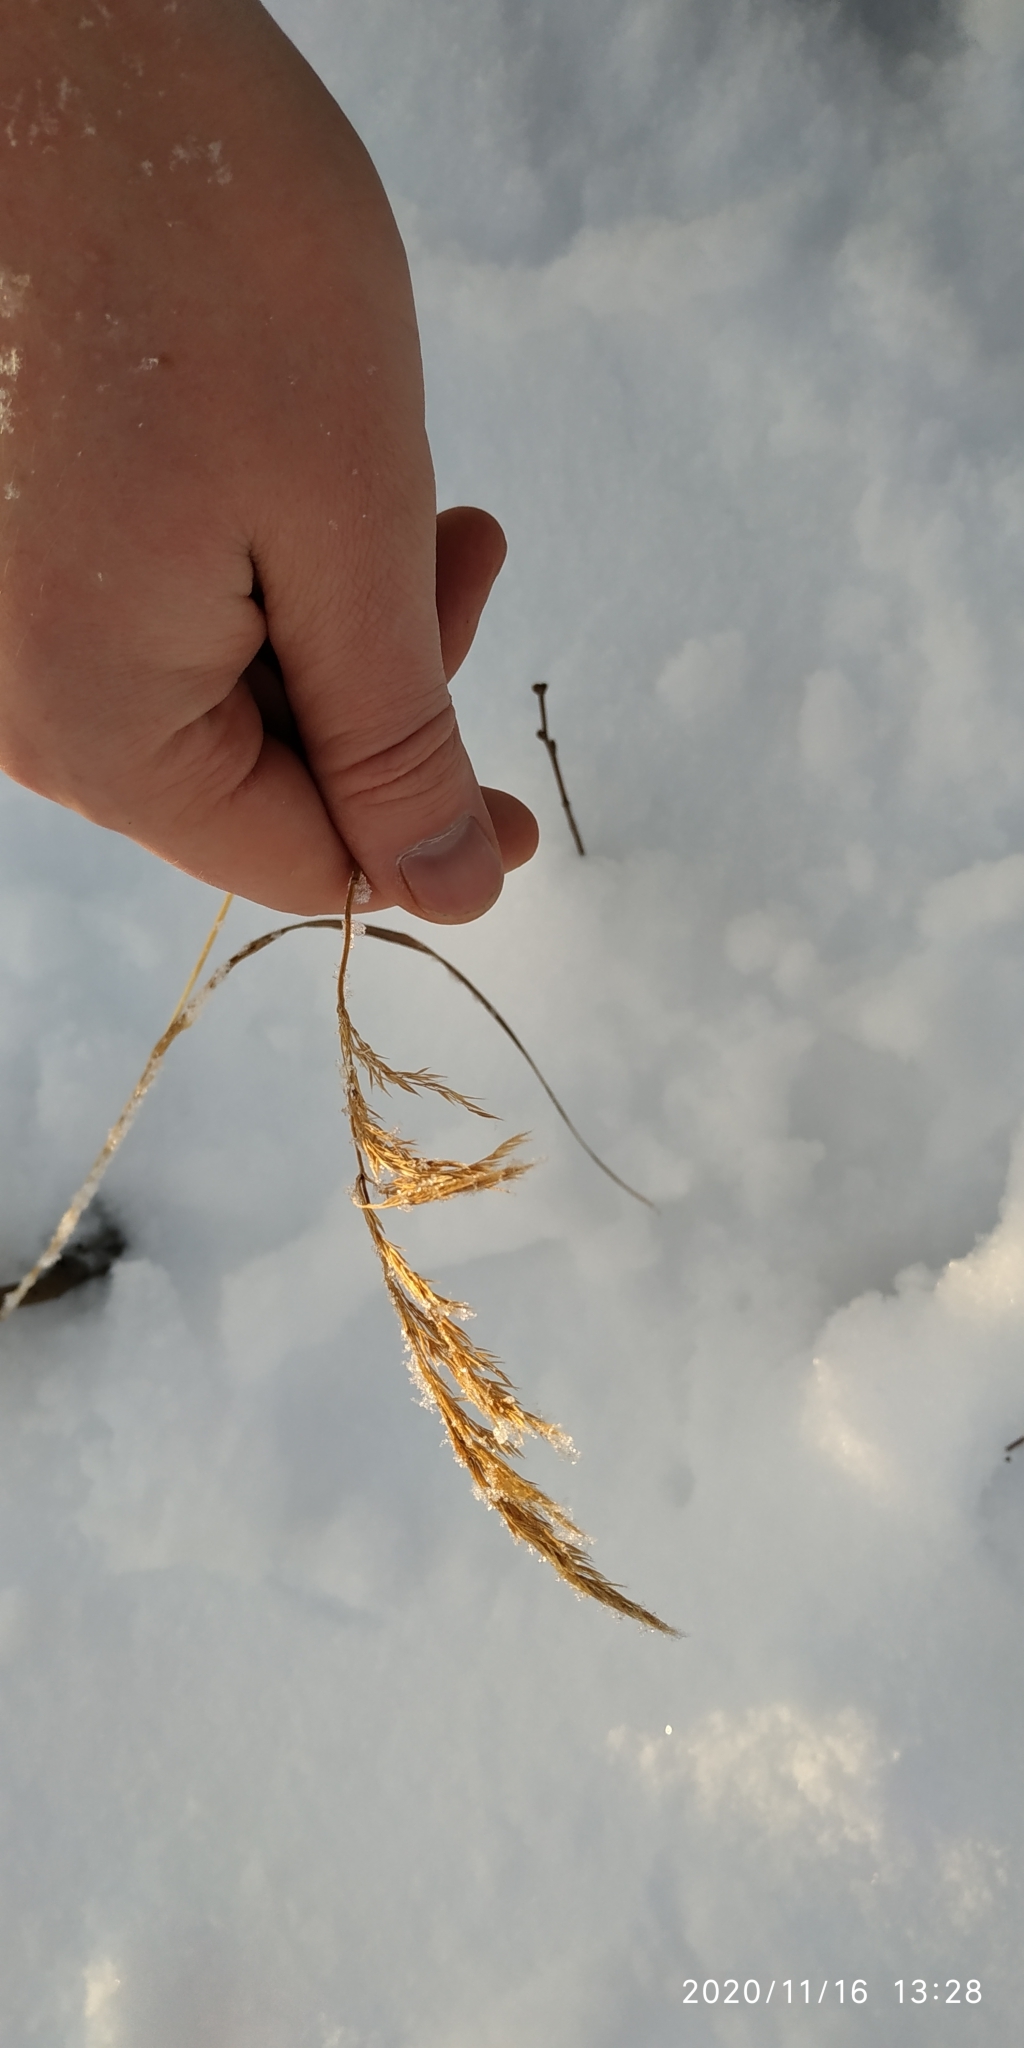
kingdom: Plantae
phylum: Tracheophyta
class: Liliopsida
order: Poales
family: Poaceae
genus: Calamagrostis
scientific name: Calamagrostis purpurea
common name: Scandinavian small-reed
